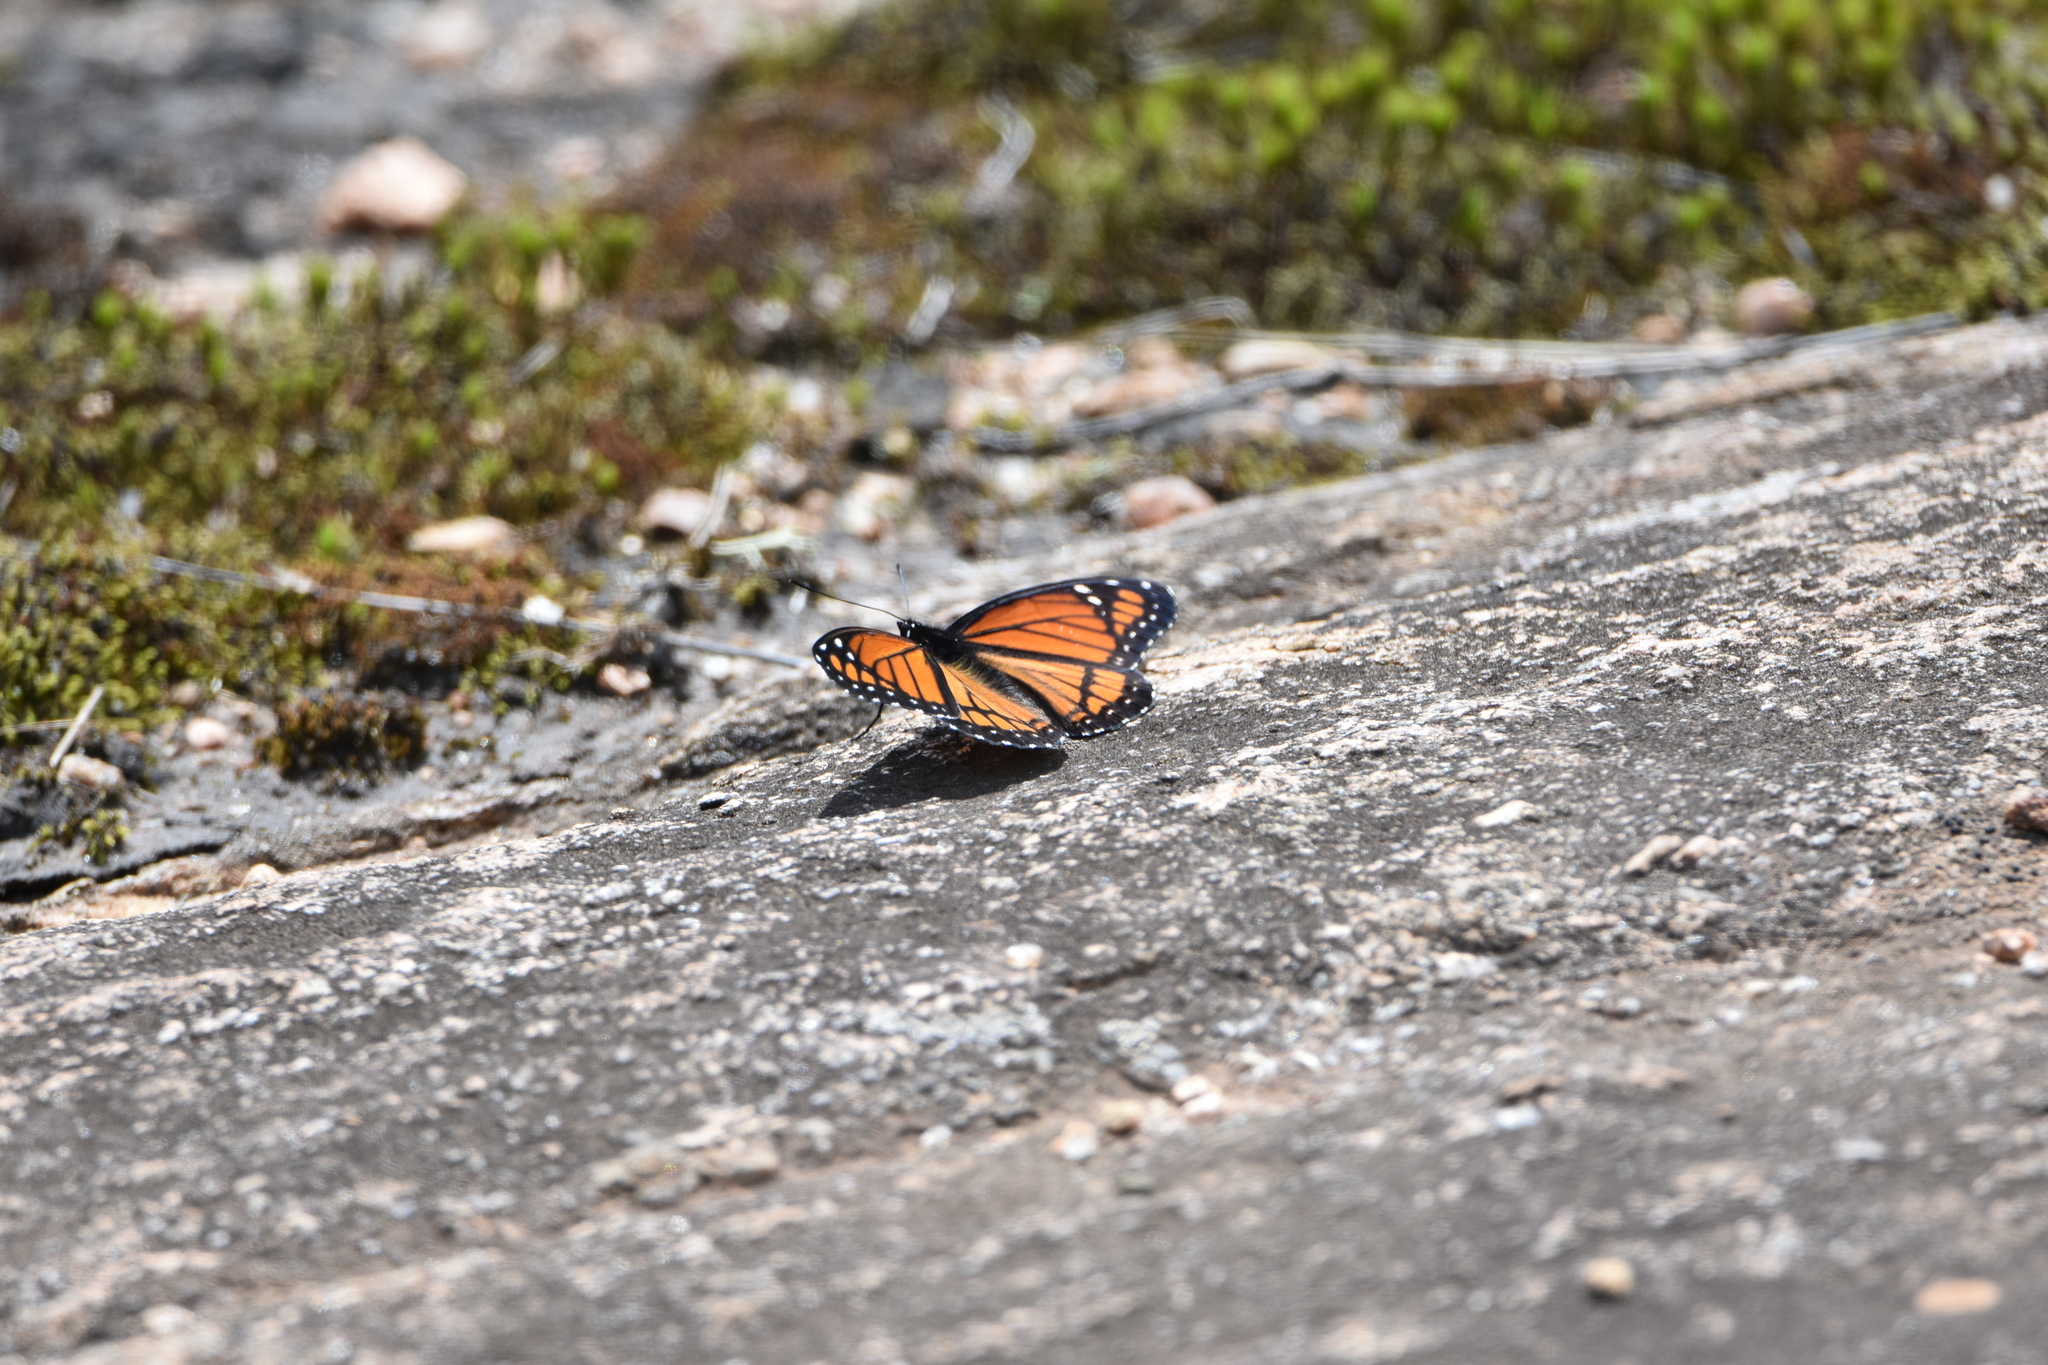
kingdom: Animalia
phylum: Arthropoda
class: Insecta
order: Lepidoptera
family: Nymphalidae
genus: Limenitis
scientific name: Limenitis archippus
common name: Viceroy
